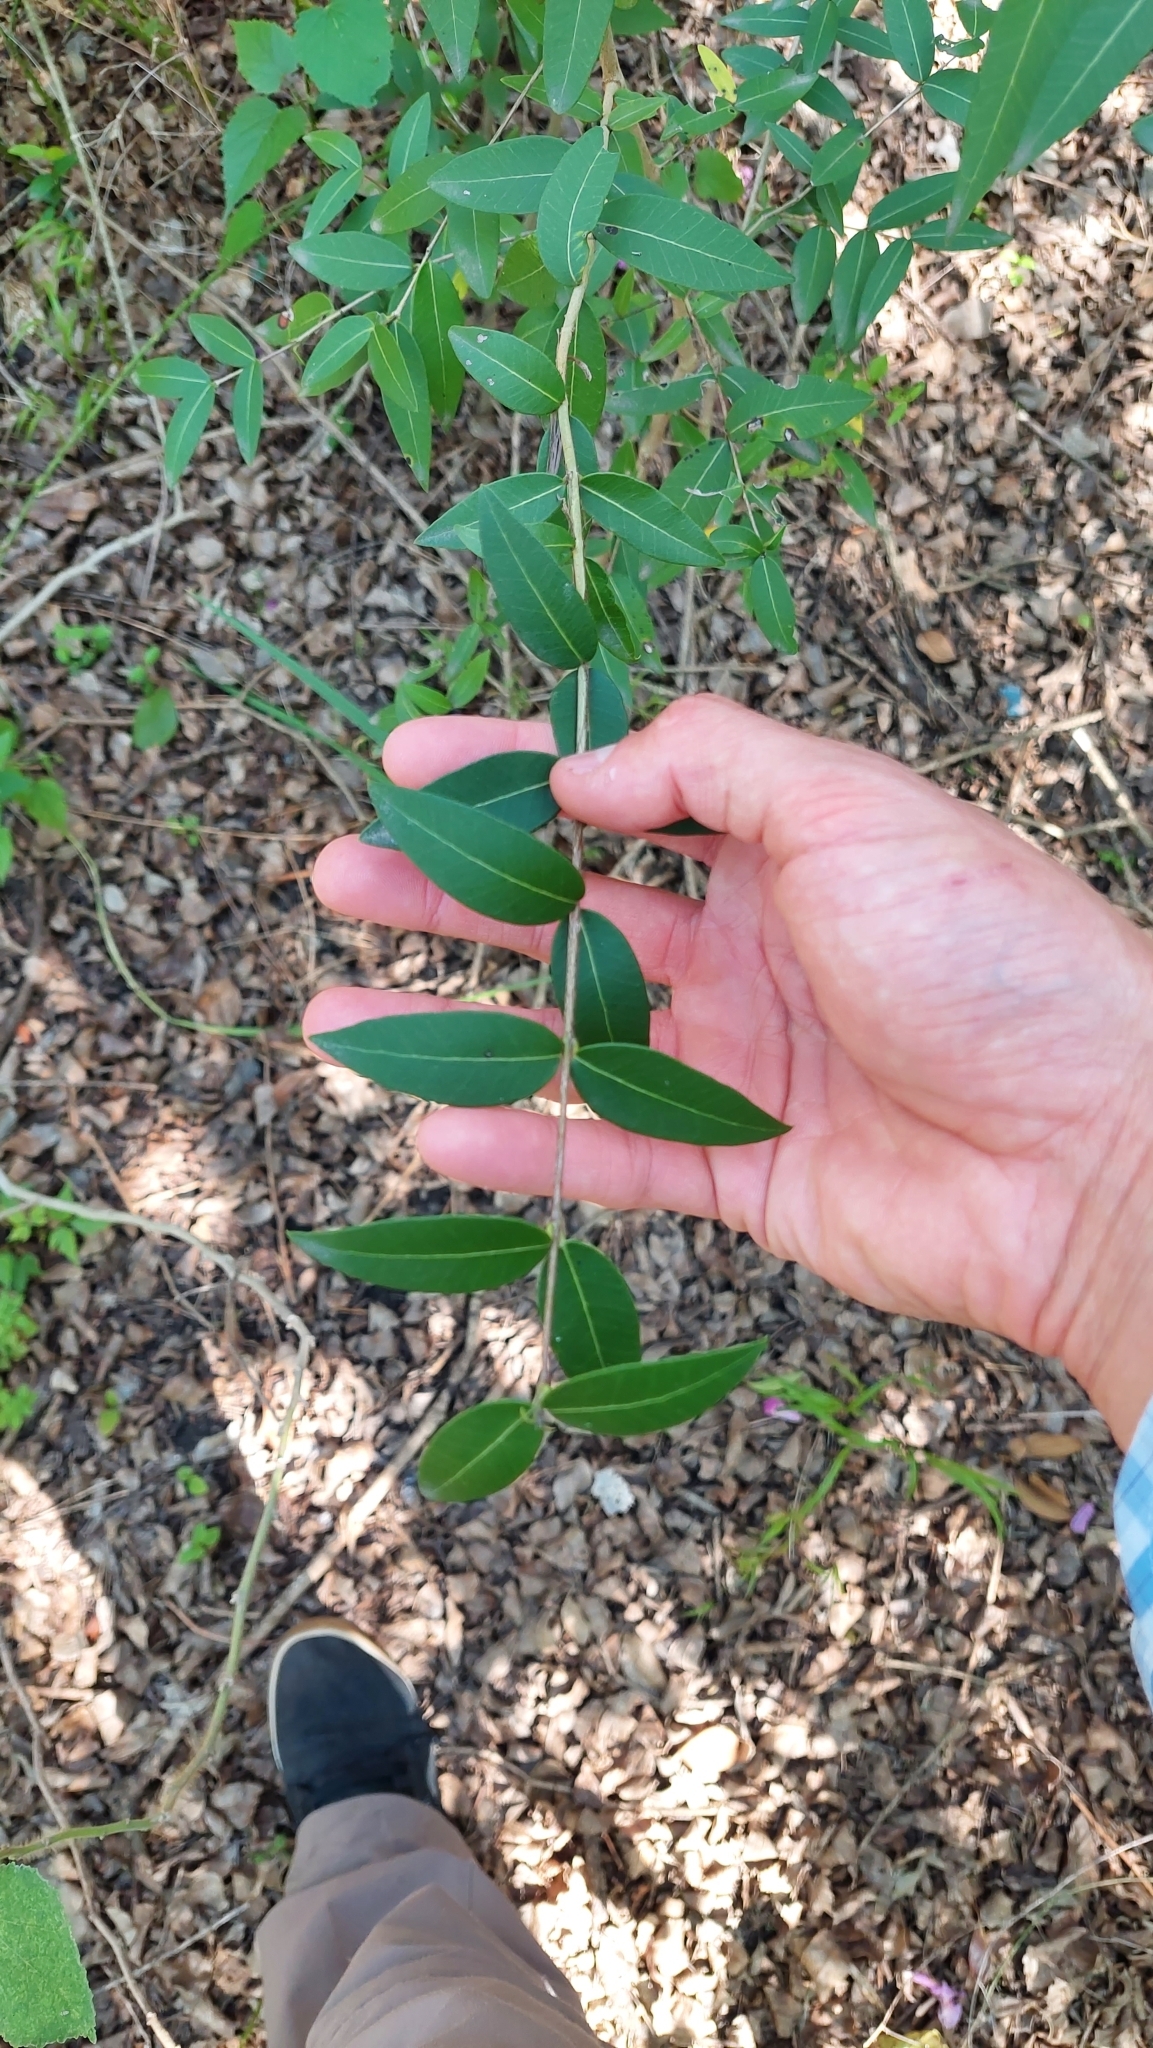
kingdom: Plantae
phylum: Tracheophyta
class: Magnoliopsida
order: Myrtales
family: Myrtaceae
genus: Myrcianthes
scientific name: Myrcianthes cisplatensis
